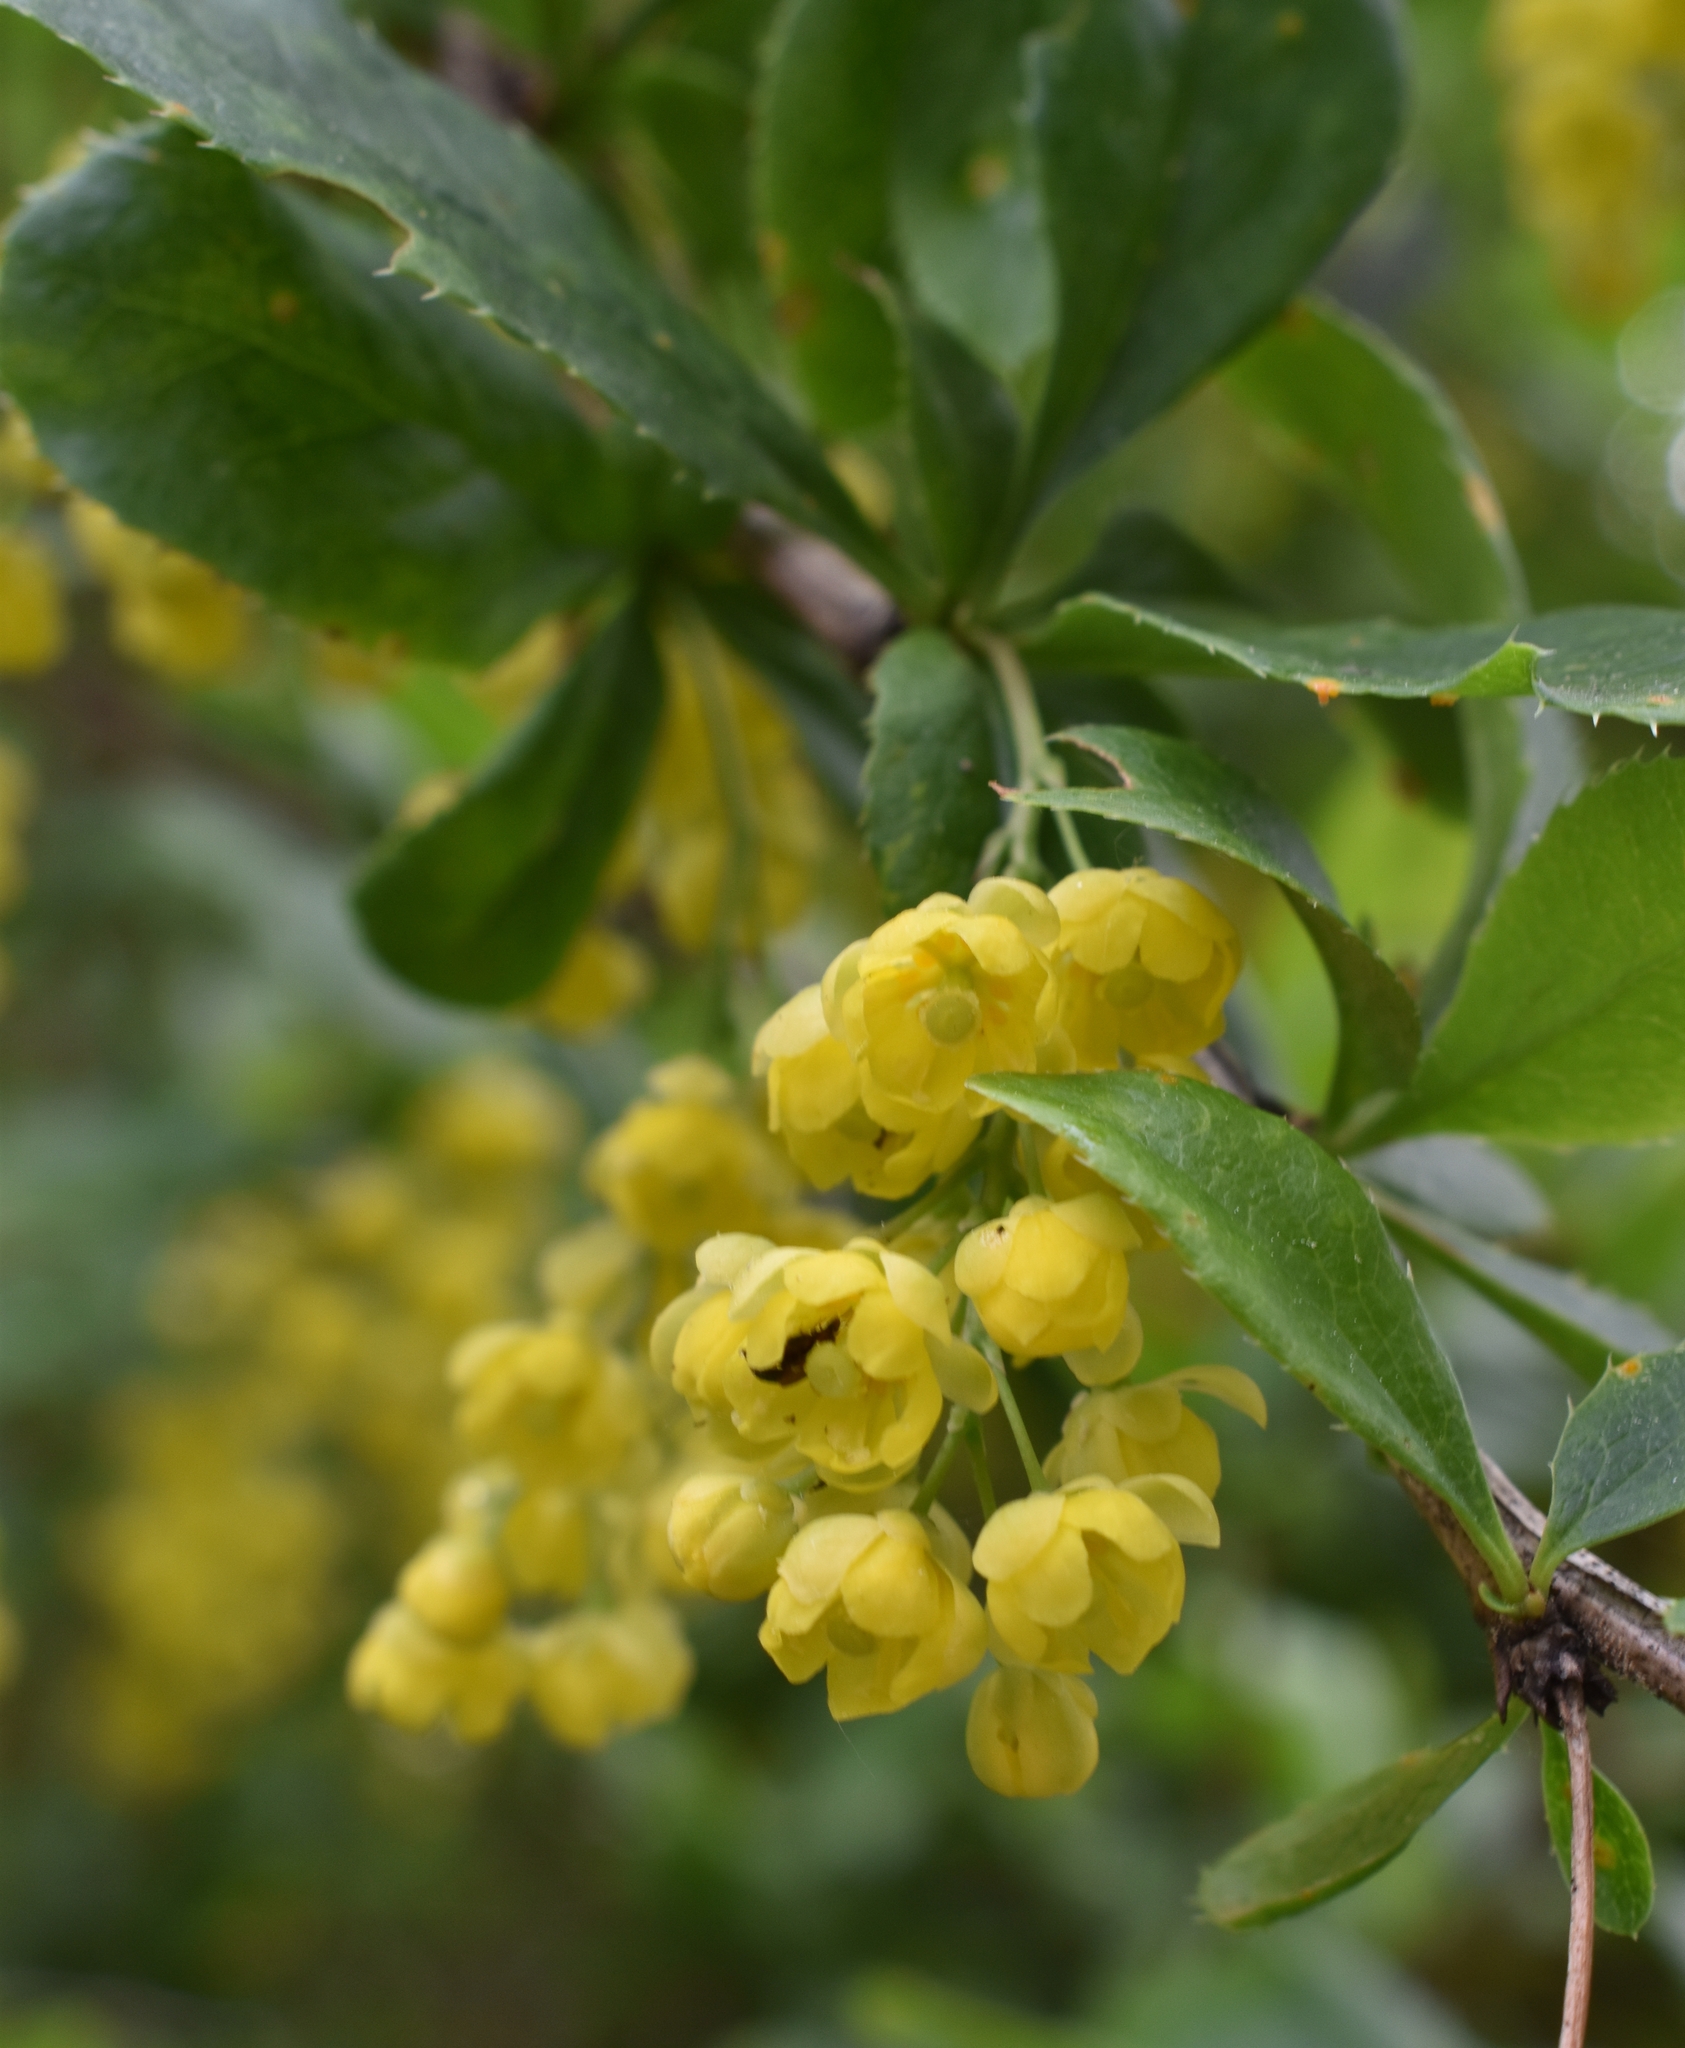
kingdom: Plantae
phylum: Tracheophyta
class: Magnoliopsida
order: Ranunculales
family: Berberidaceae
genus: Berberis
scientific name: Berberis vulgaris
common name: Barberry
